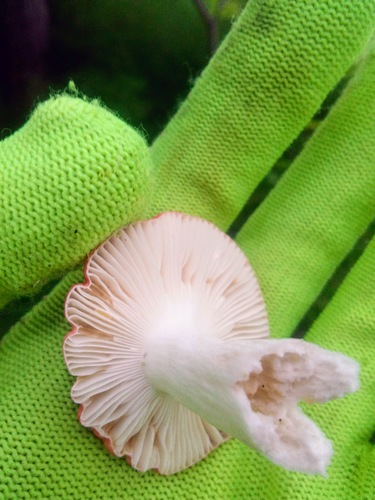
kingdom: Fungi
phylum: Basidiomycota
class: Agaricomycetes
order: Russulales
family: Russulaceae
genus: Russula
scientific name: Russula
